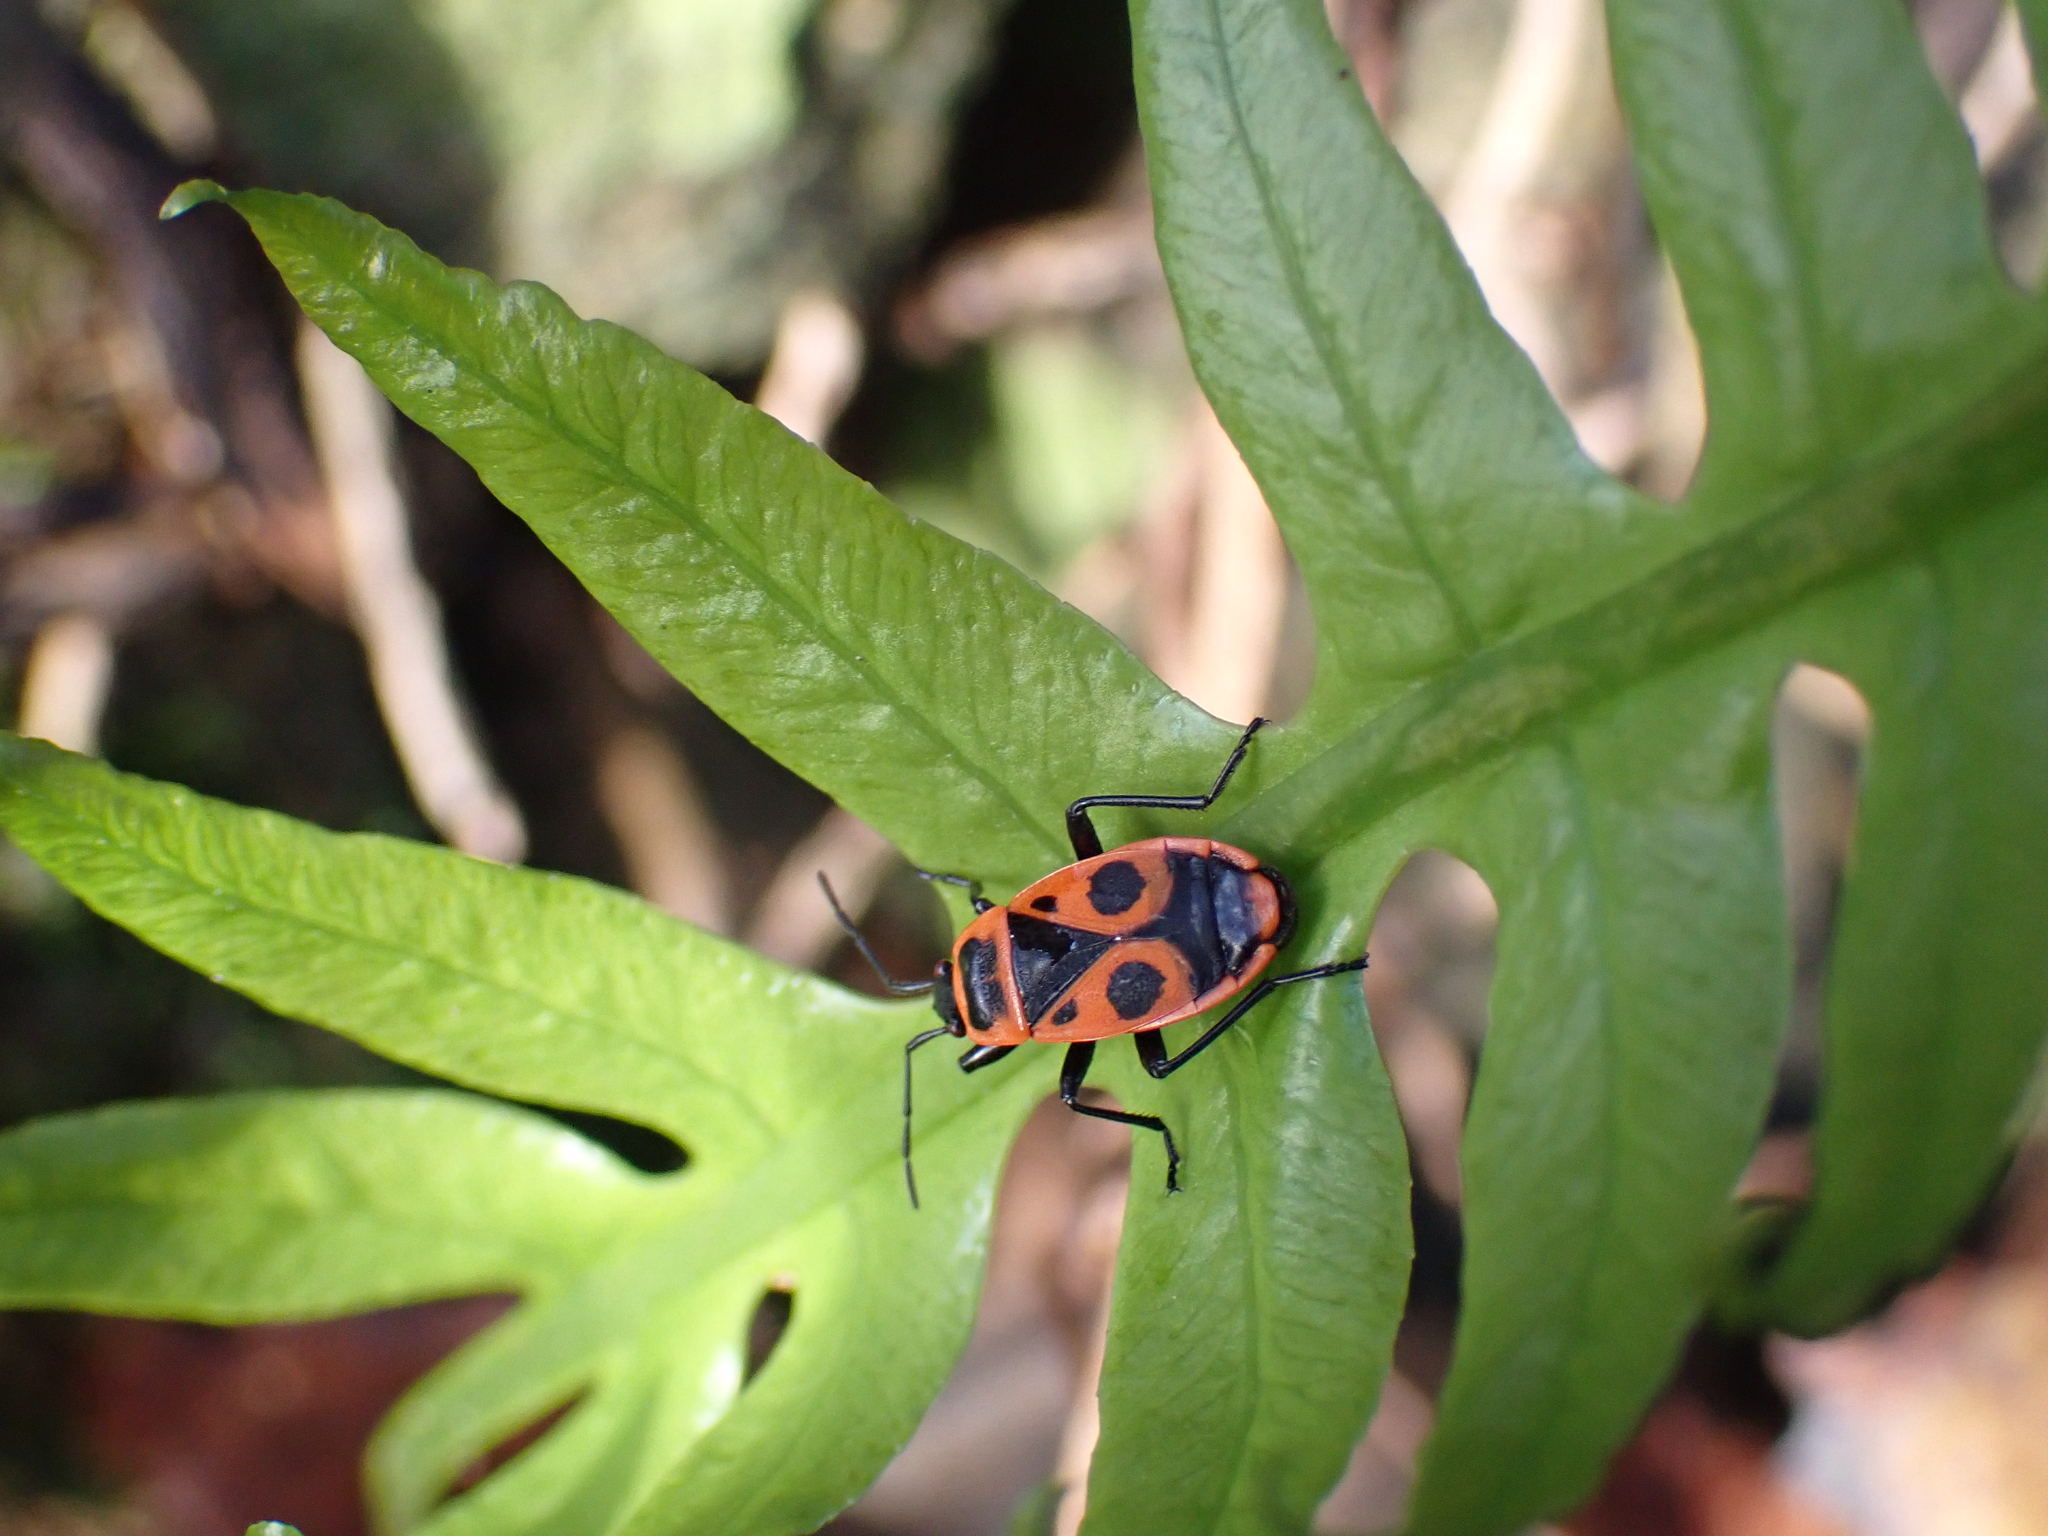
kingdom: Animalia
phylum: Arthropoda
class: Insecta
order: Hemiptera
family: Pyrrhocoridae
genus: Pyrrhocoris
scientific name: Pyrrhocoris apterus
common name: Firebug
